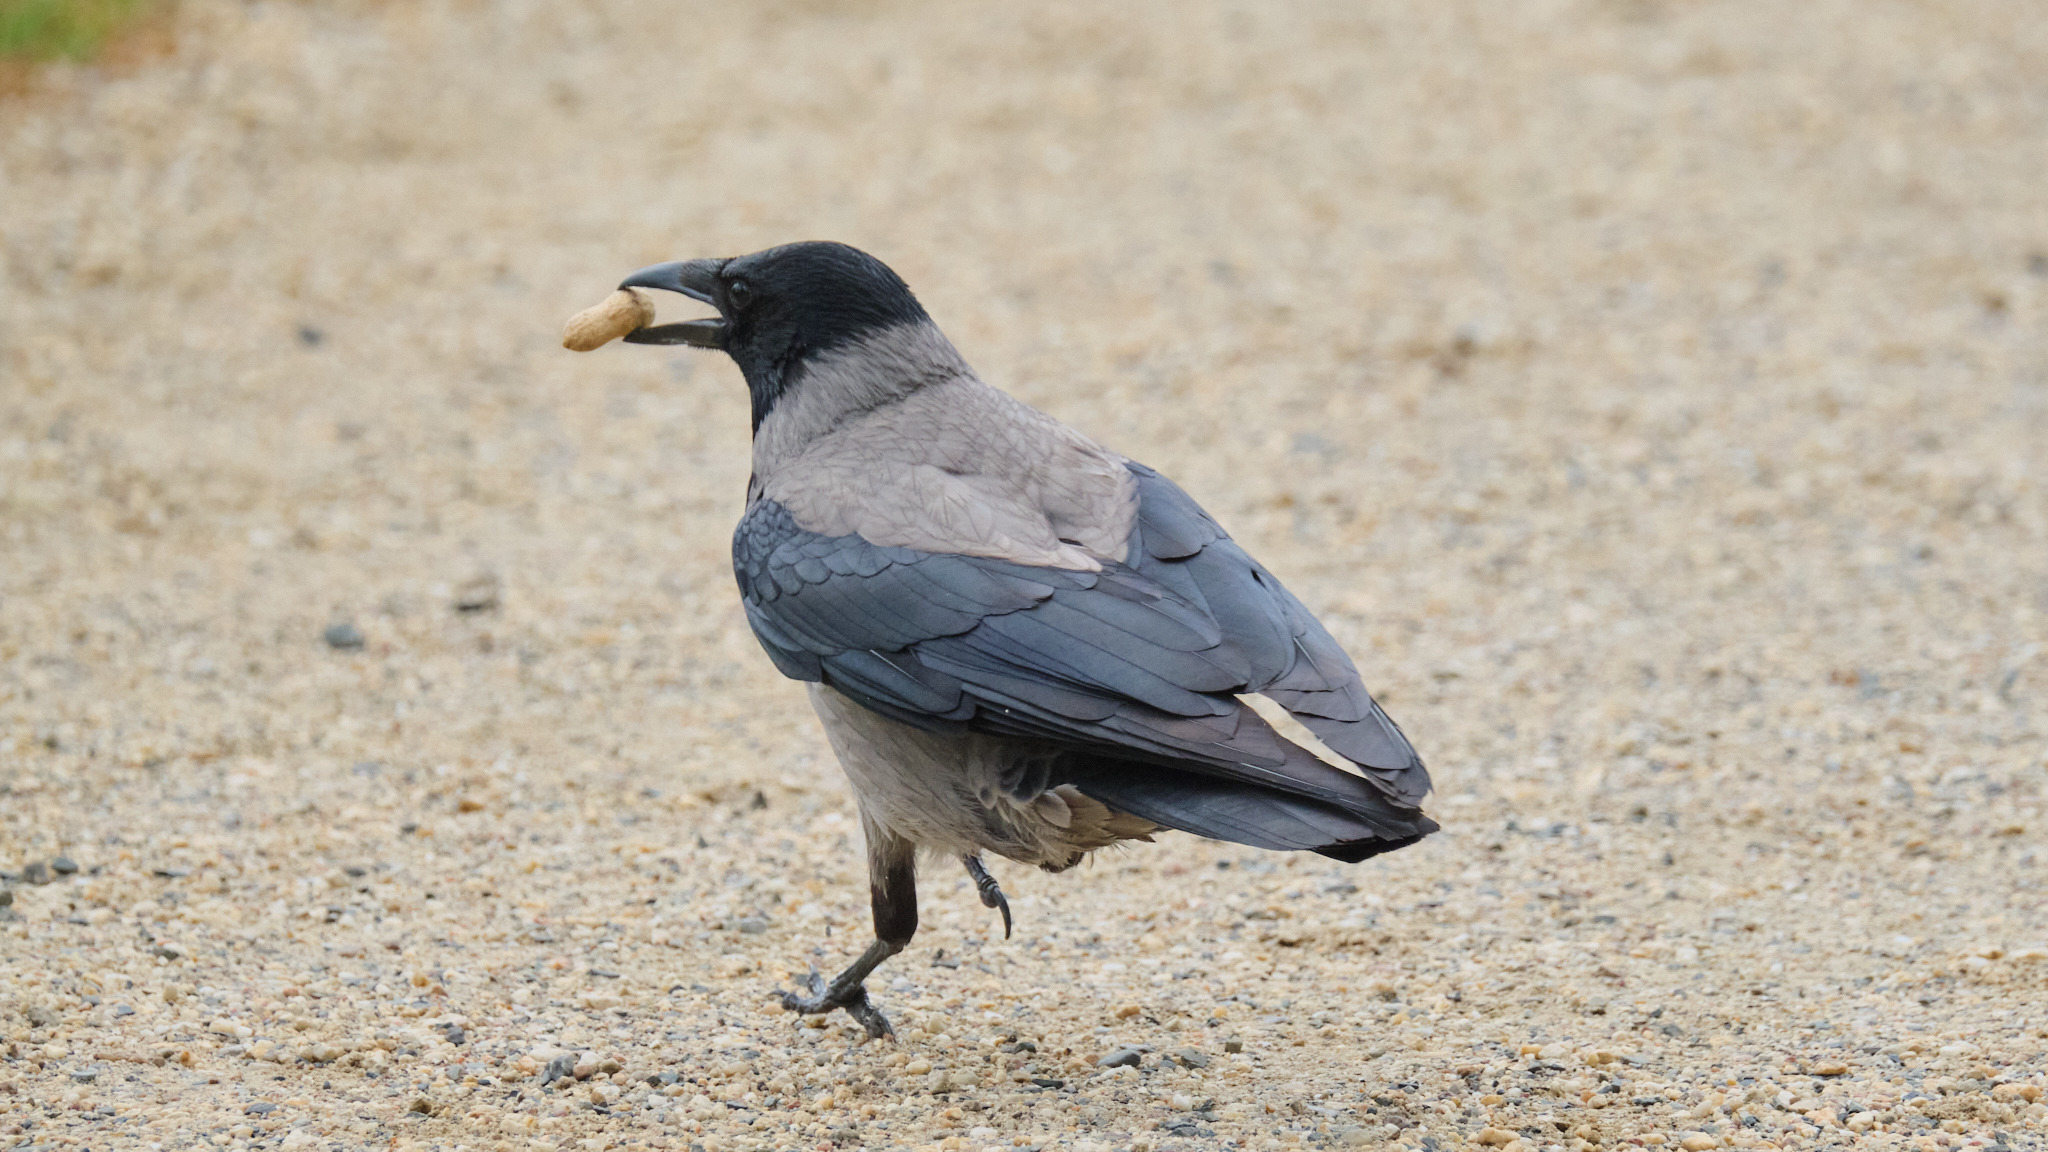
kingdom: Animalia
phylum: Chordata
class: Aves
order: Passeriformes
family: Corvidae
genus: Corvus
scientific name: Corvus cornix
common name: Hooded crow
